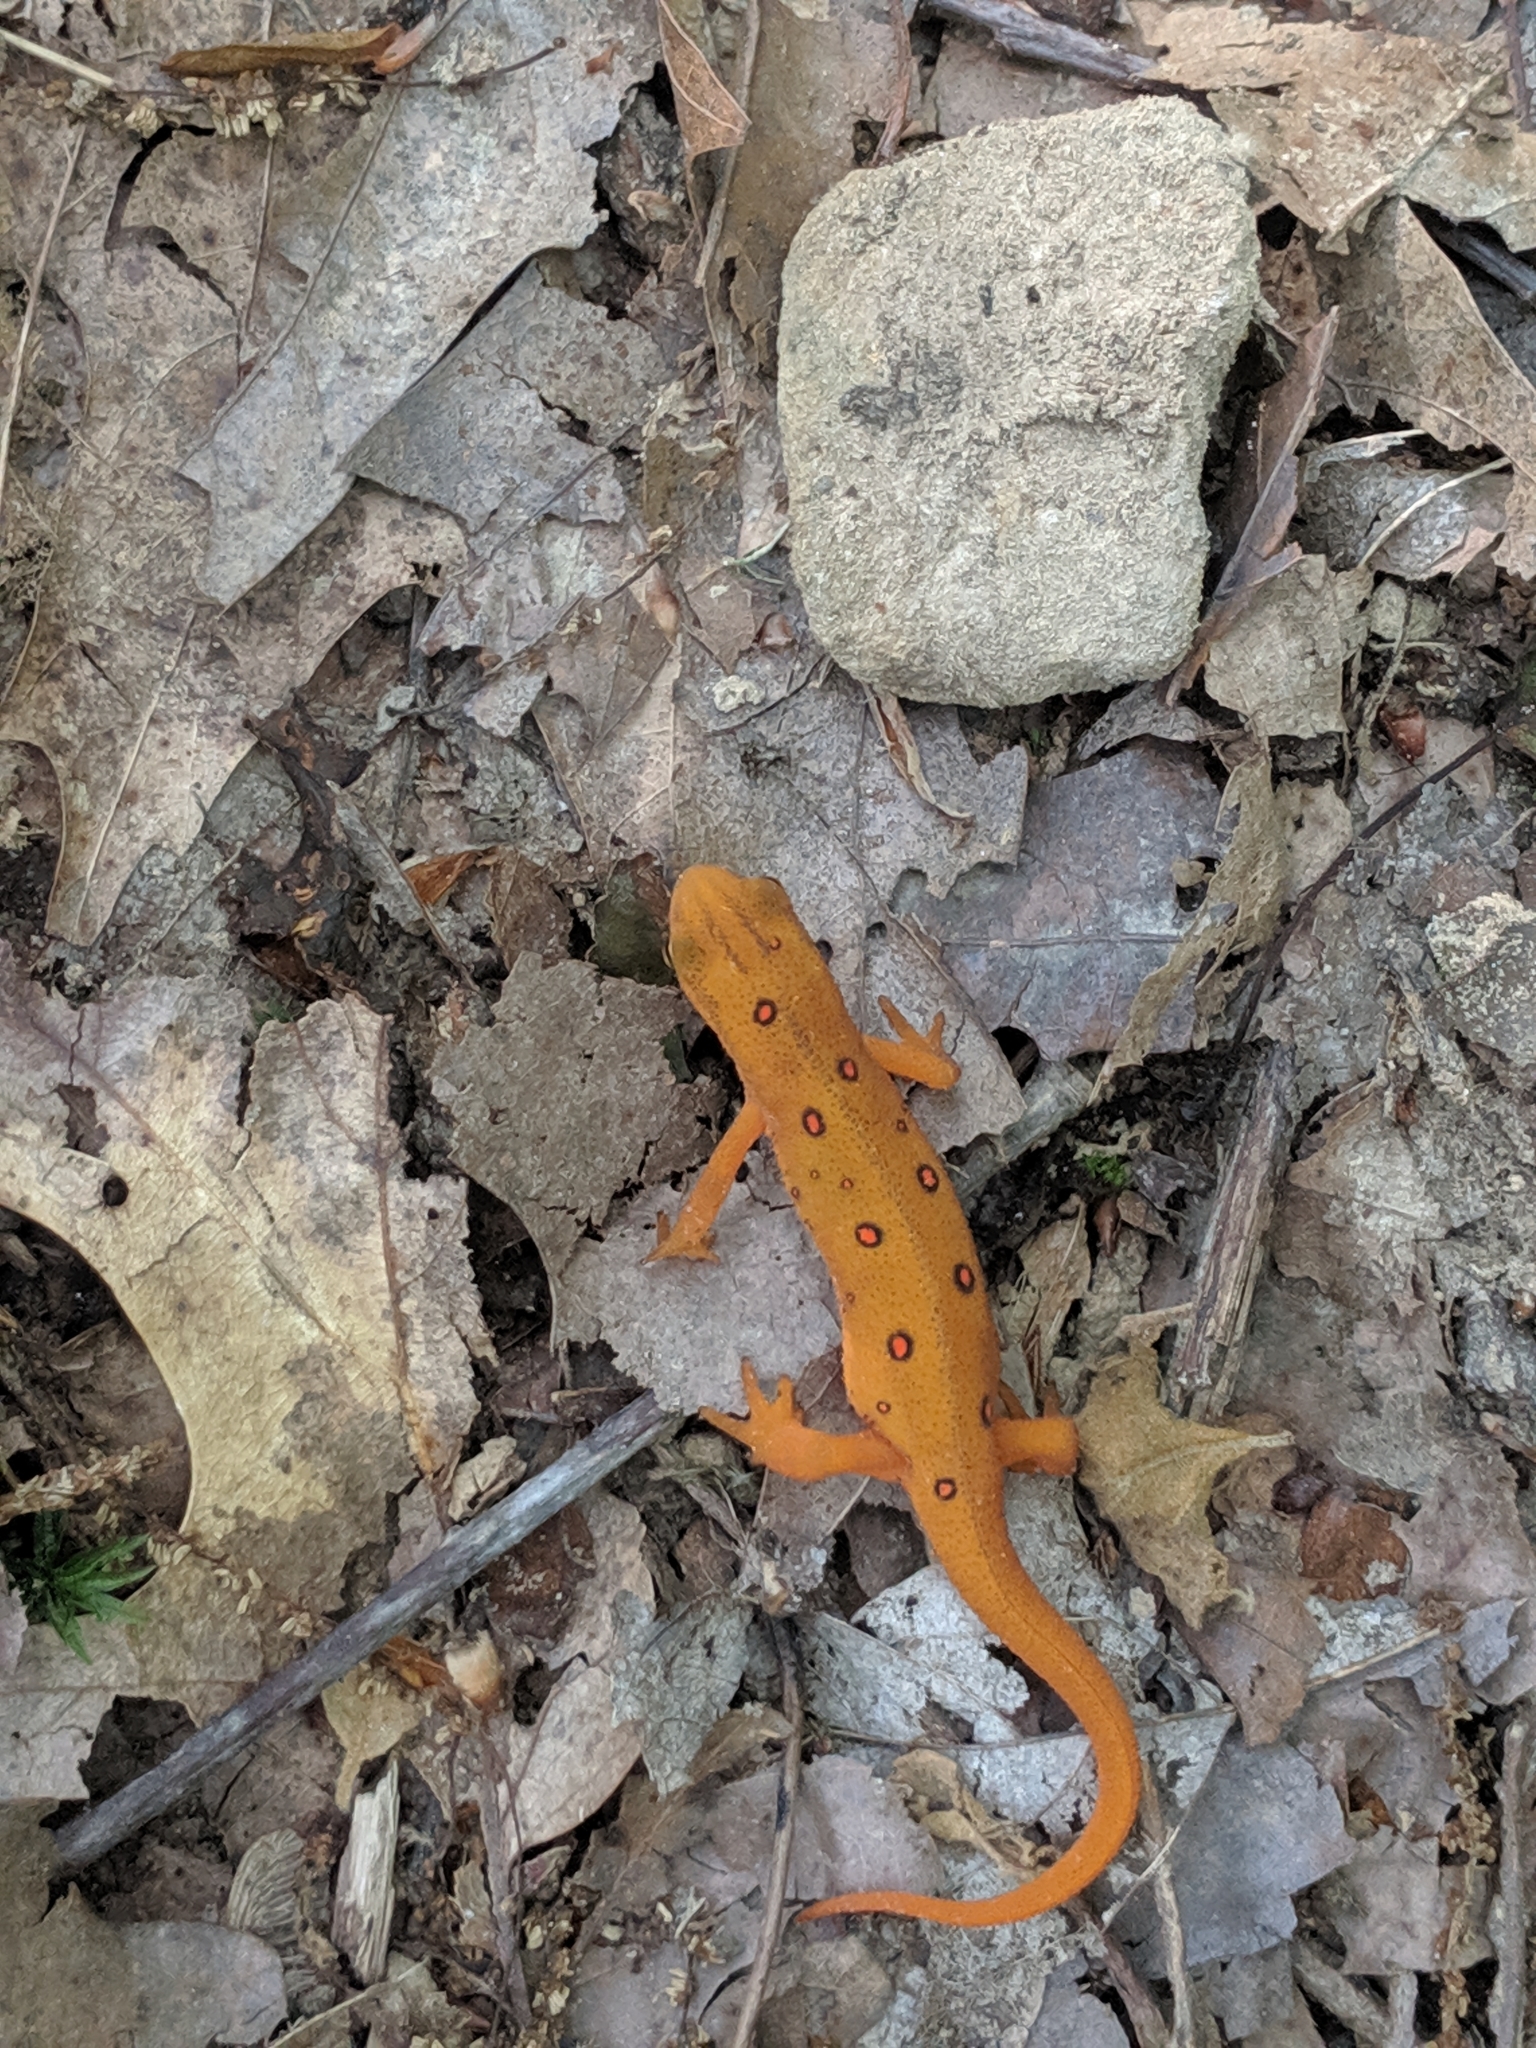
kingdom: Animalia
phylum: Chordata
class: Amphibia
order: Caudata
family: Salamandridae
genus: Notophthalmus
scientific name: Notophthalmus viridescens
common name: Eastern newt
